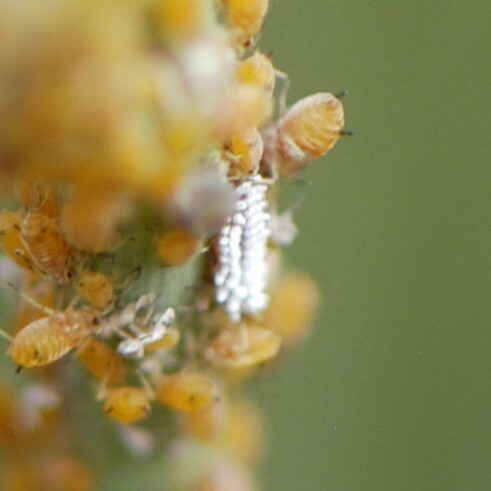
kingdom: Animalia
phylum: Arthropoda
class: Insecta
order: Hemiptera
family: Aphididae
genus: Aphis
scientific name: Aphis asclepiadis
